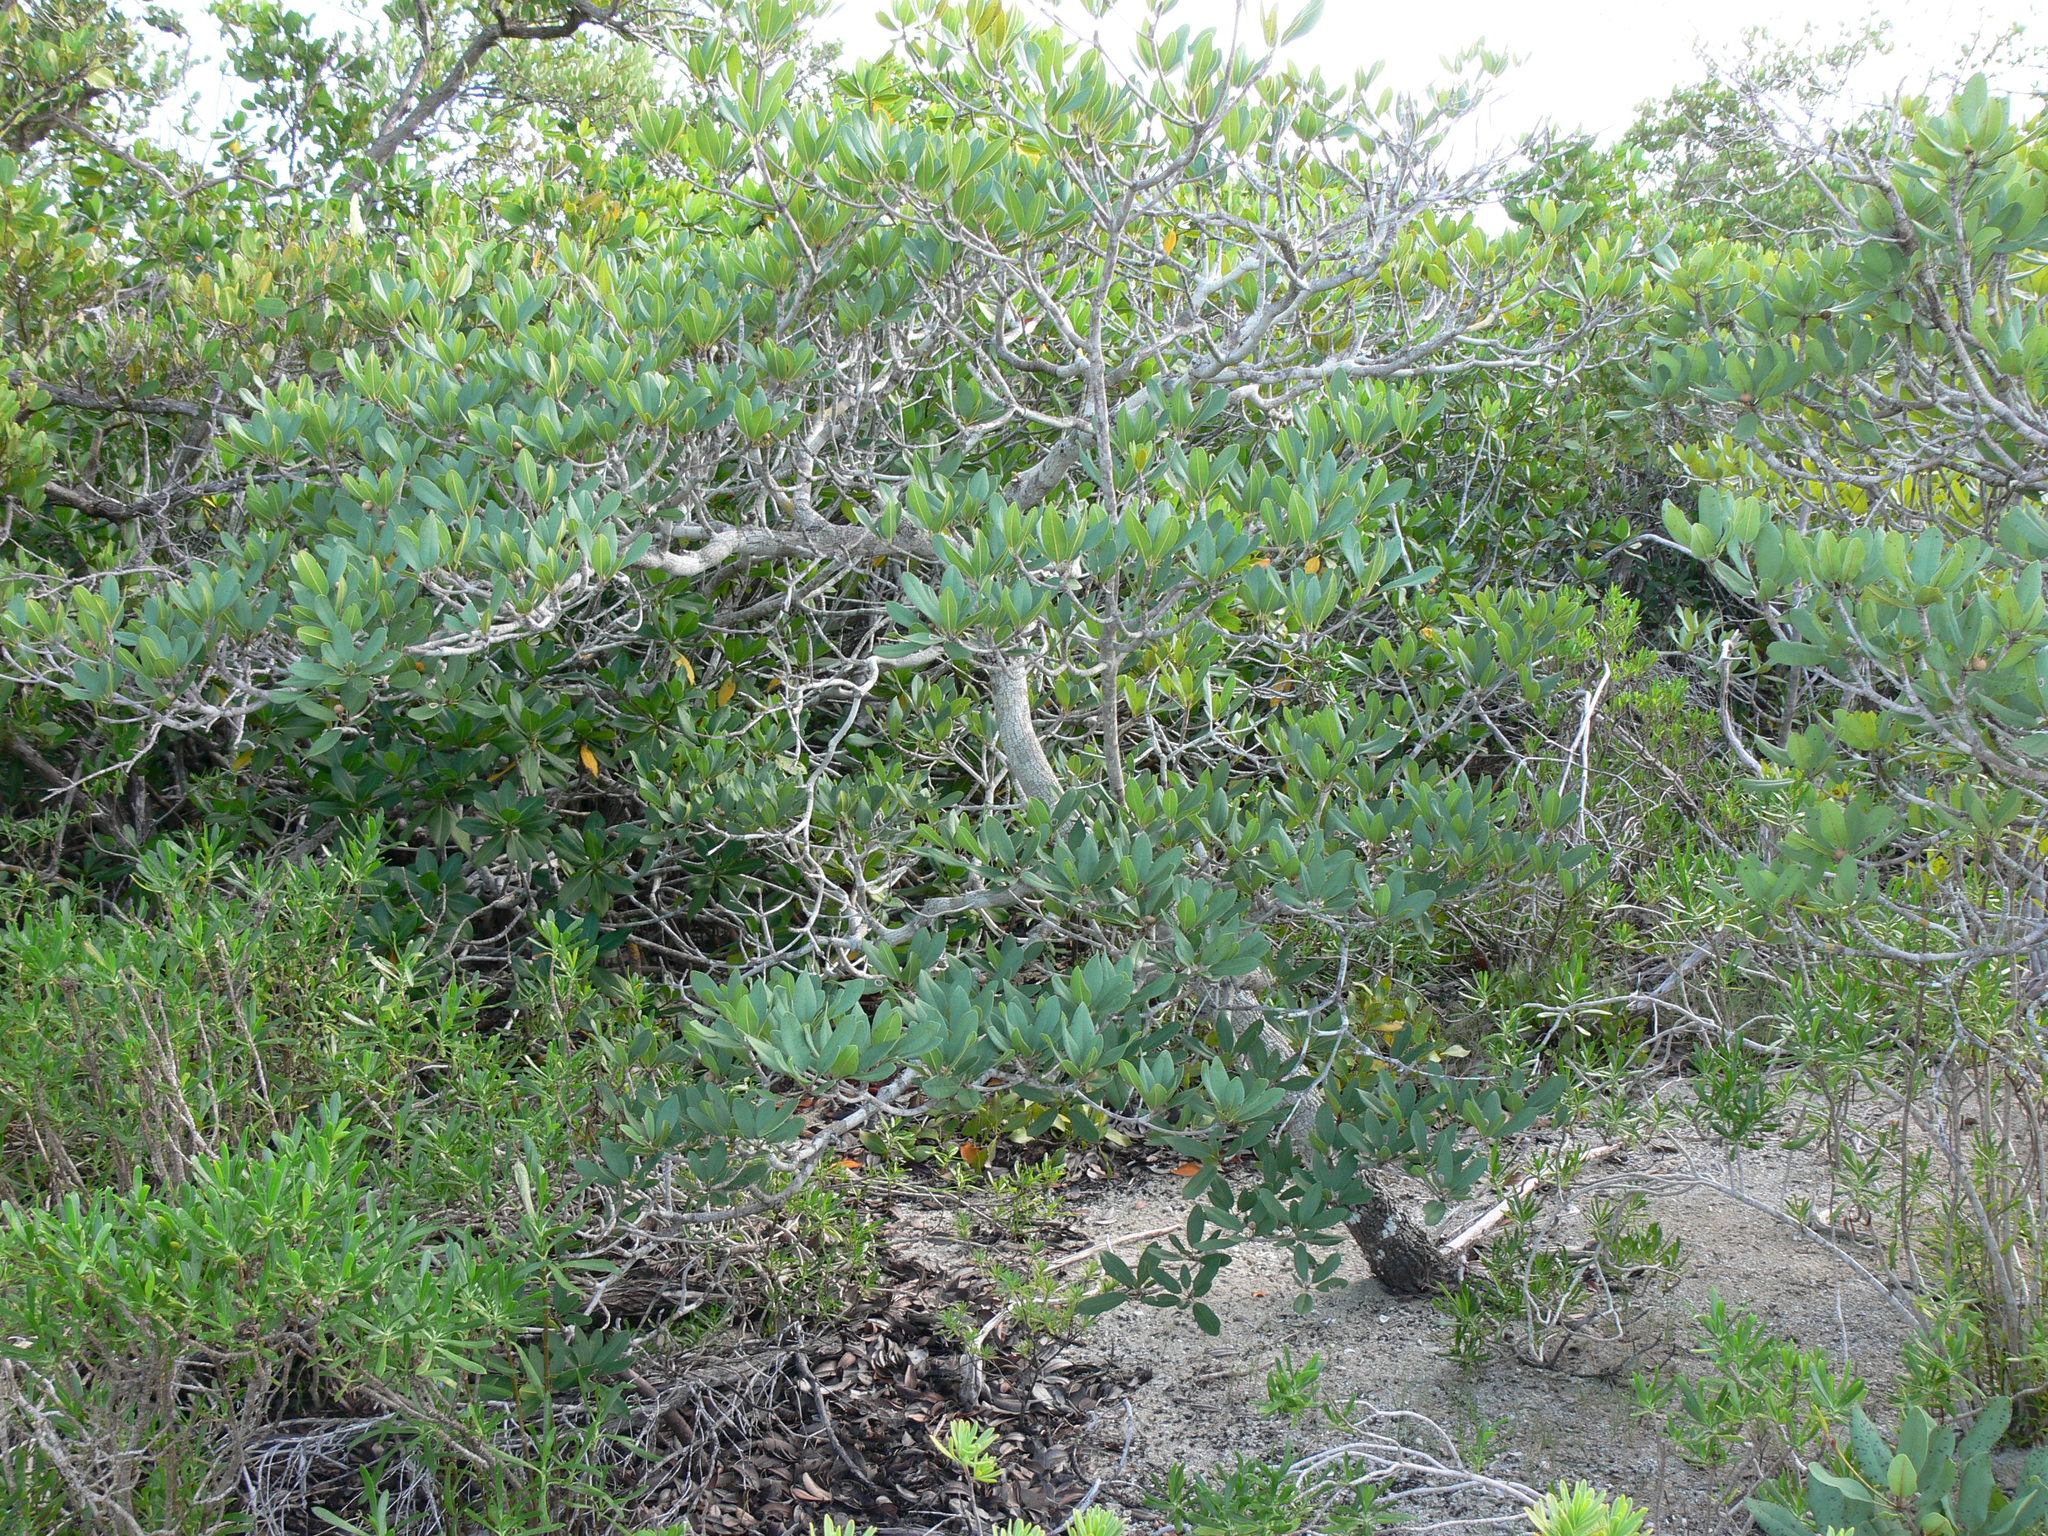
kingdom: Plantae
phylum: Tracheophyta
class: Magnoliopsida
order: Ericales
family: Sapotaceae
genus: Manilkara
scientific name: Manilkara jaimiqui
